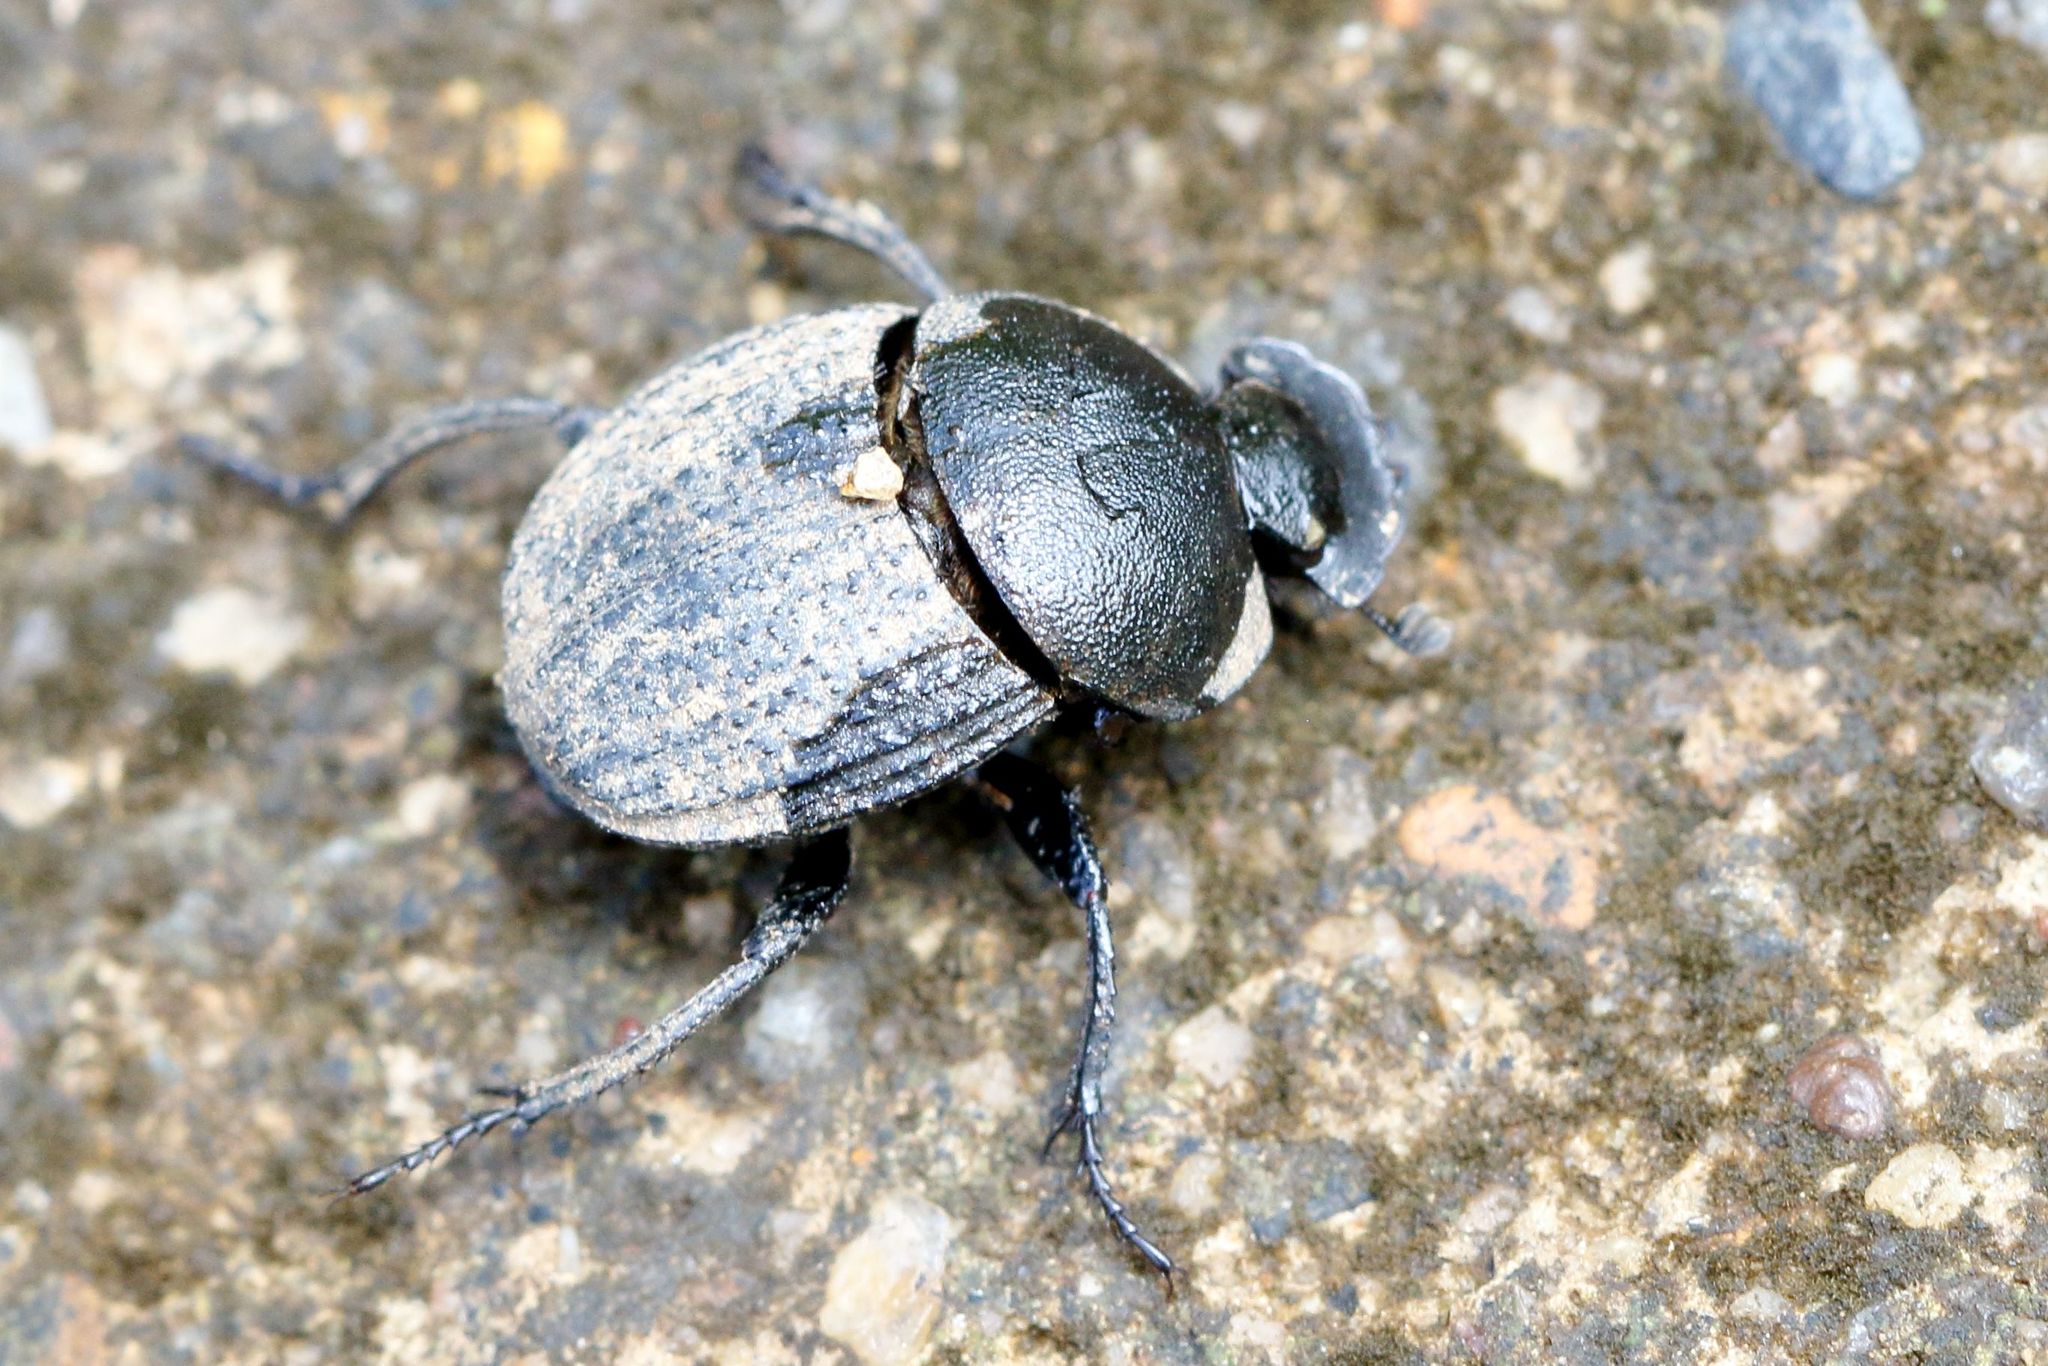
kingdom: Animalia
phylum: Arthropoda
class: Insecta
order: Coleoptera
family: Scarabaeidae
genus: Epirinus
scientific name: Epirinus asper
